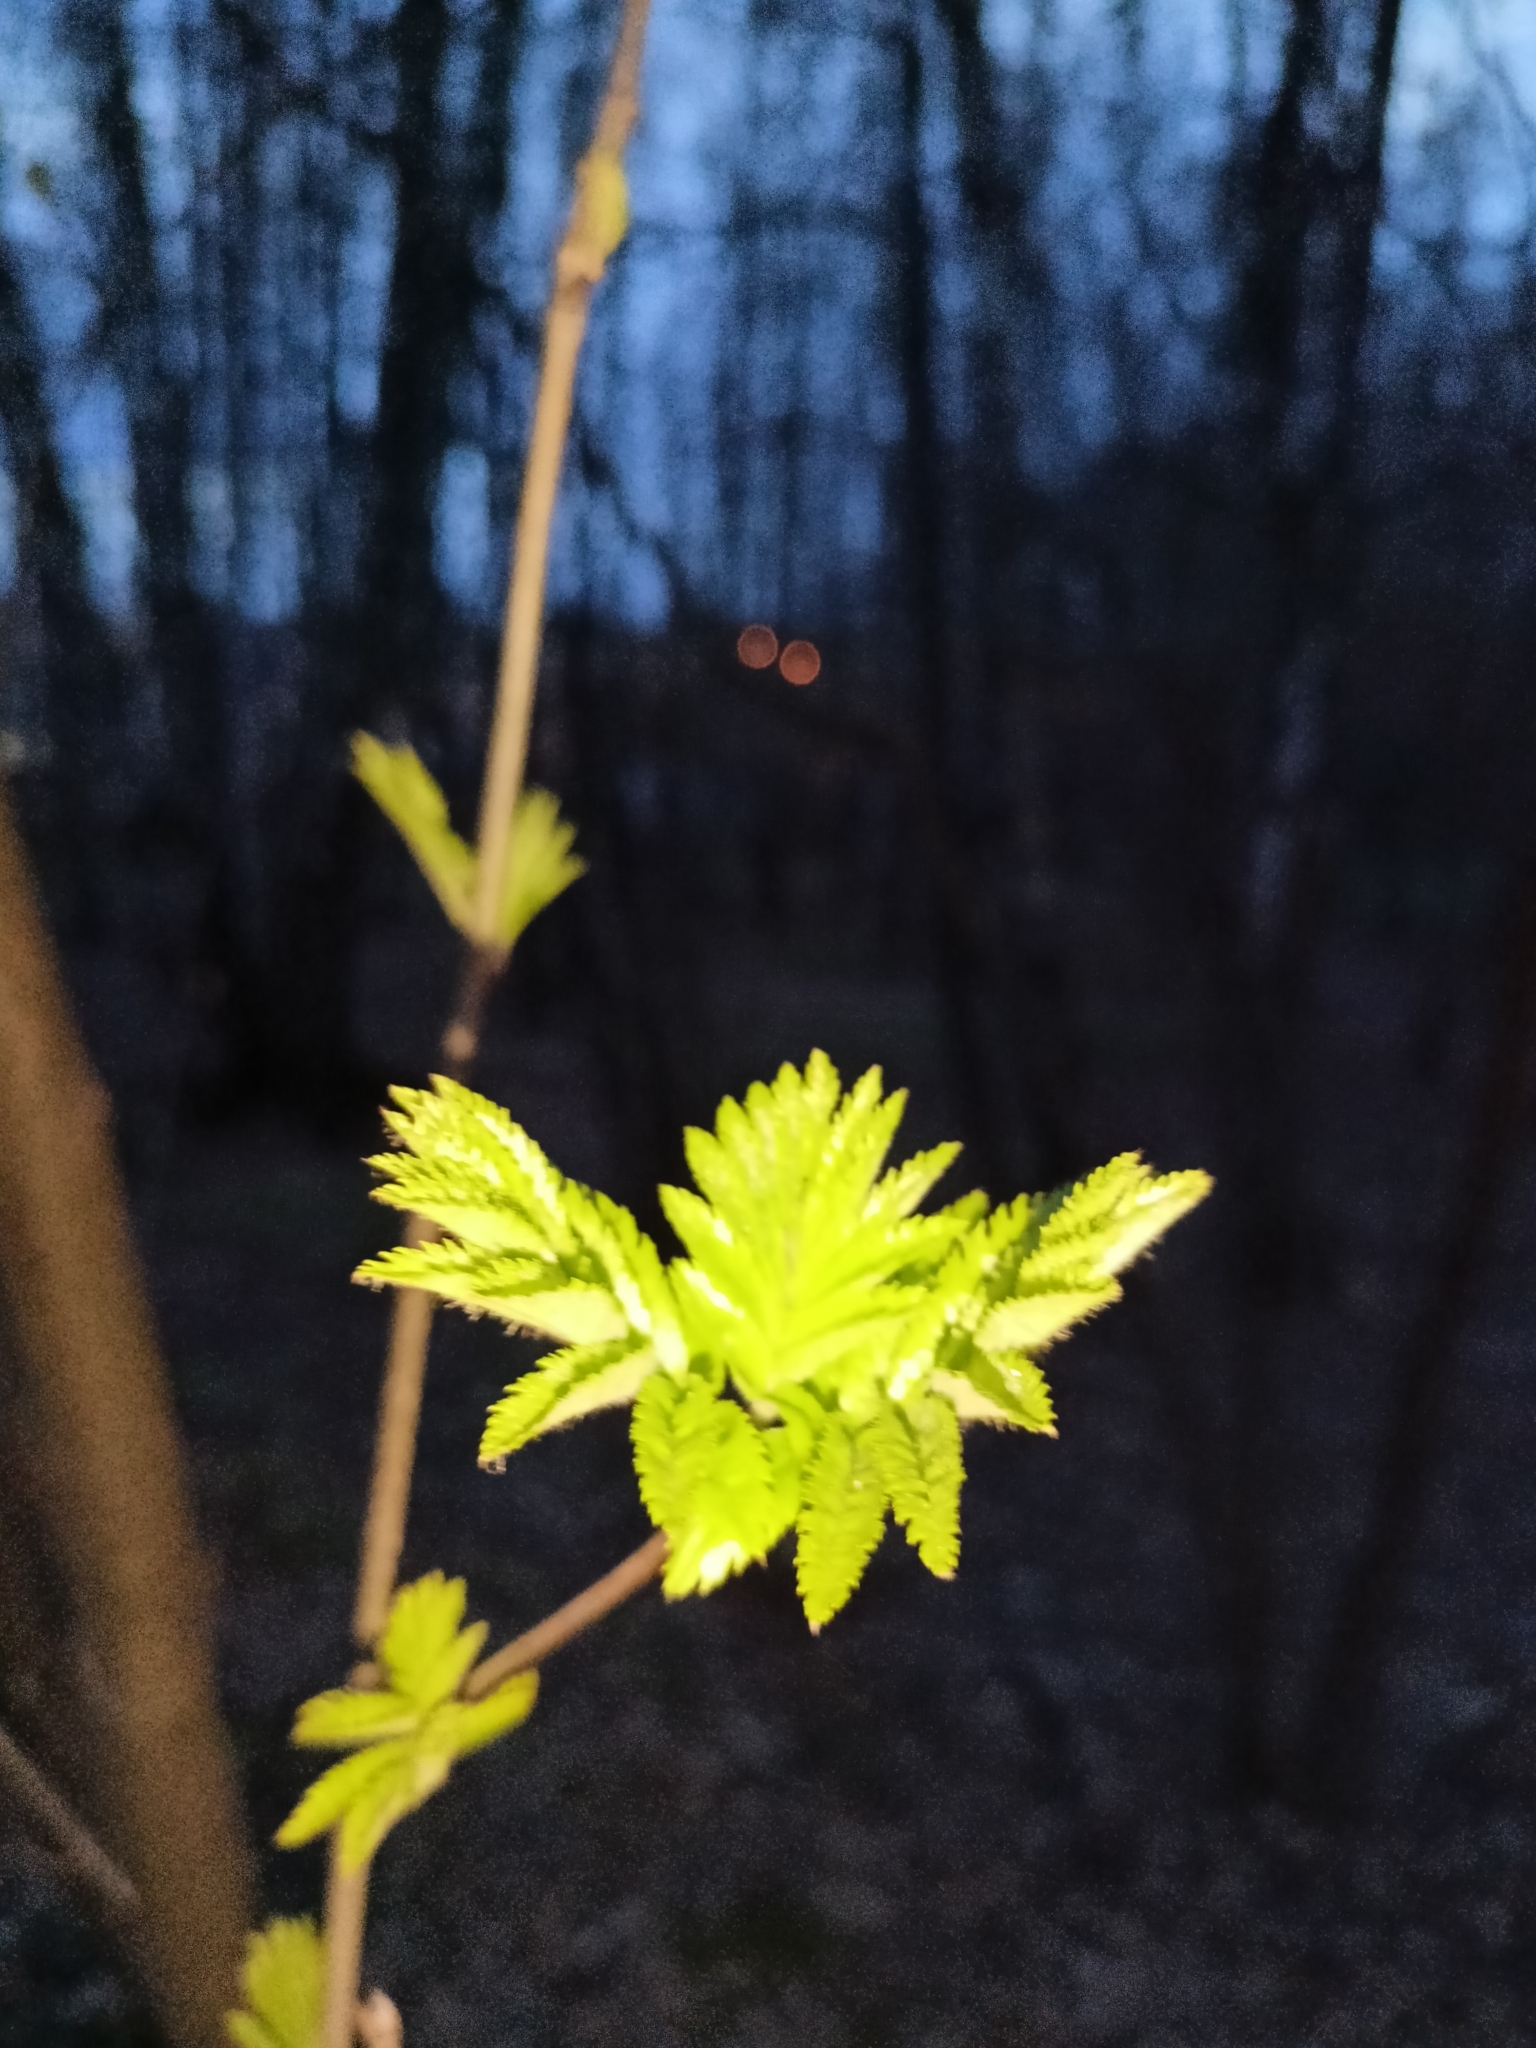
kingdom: Plantae
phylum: Tracheophyta
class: Magnoliopsida
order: Rosales
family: Rosaceae
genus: Sorbus
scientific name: Sorbus aucuparia
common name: Rowan
